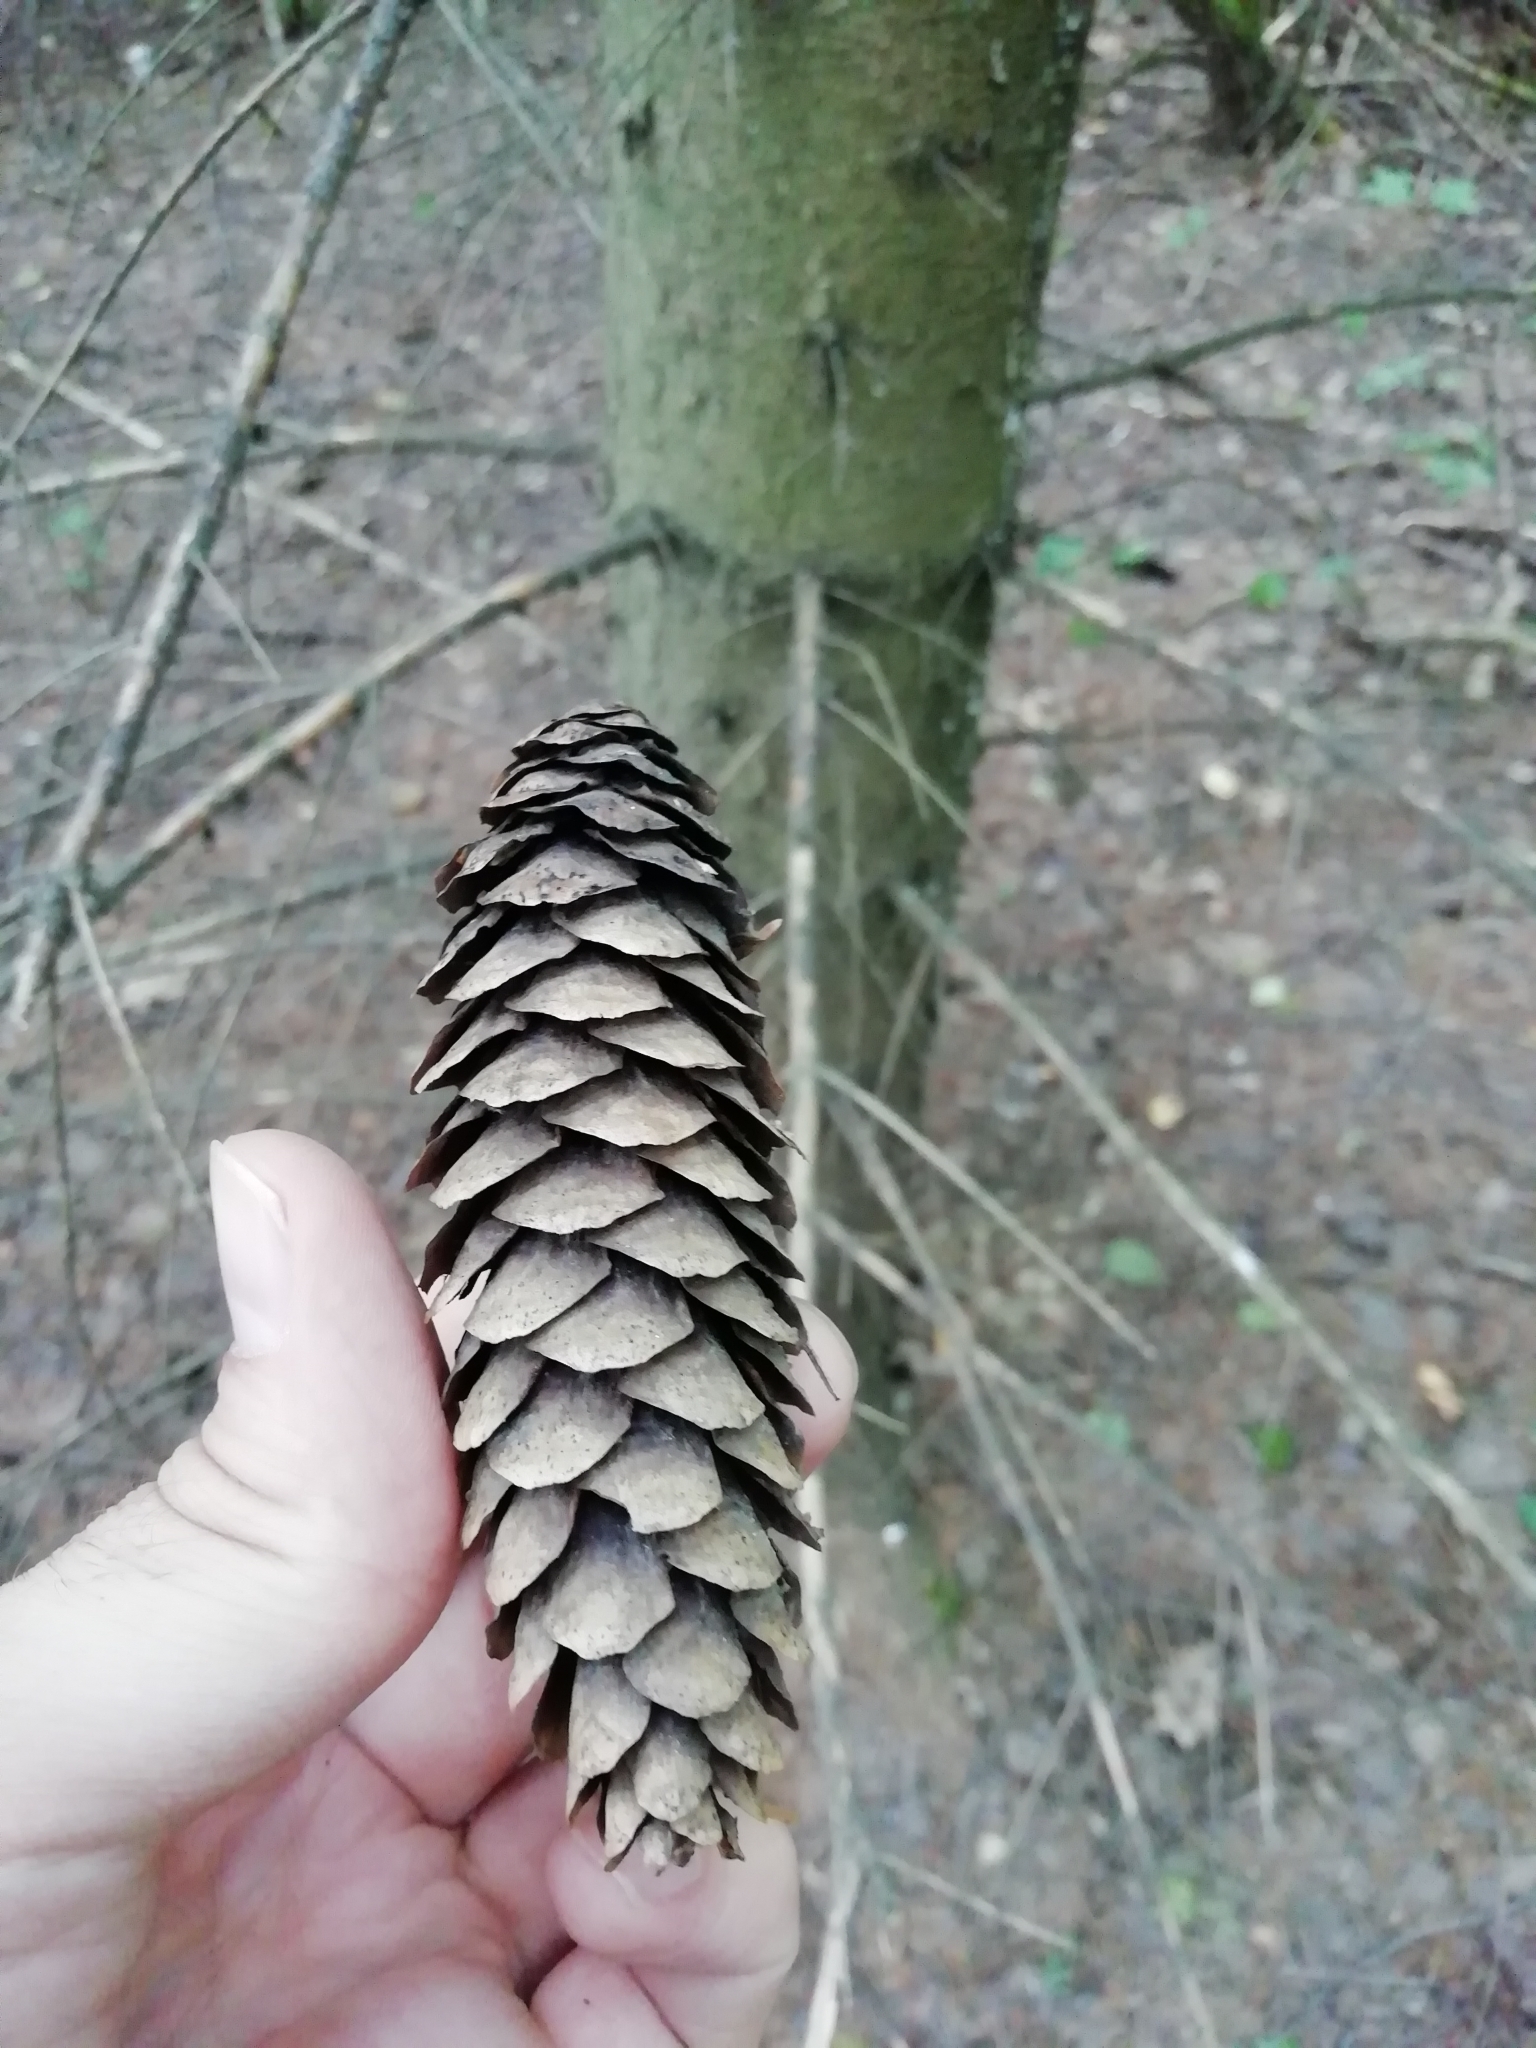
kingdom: Plantae
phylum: Tracheophyta
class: Pinopsida
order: Pinales
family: Pinaceae
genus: Picea
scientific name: Picea fennica
